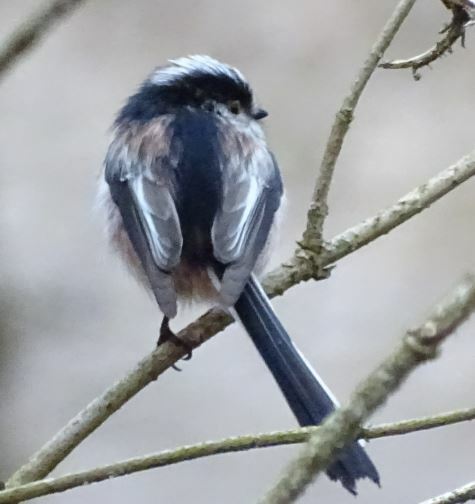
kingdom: Animalia
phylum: Chordata
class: Aves
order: Passeriformes
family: Aegithalidae
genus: Aegithalos
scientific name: Aegithalos caudatus
